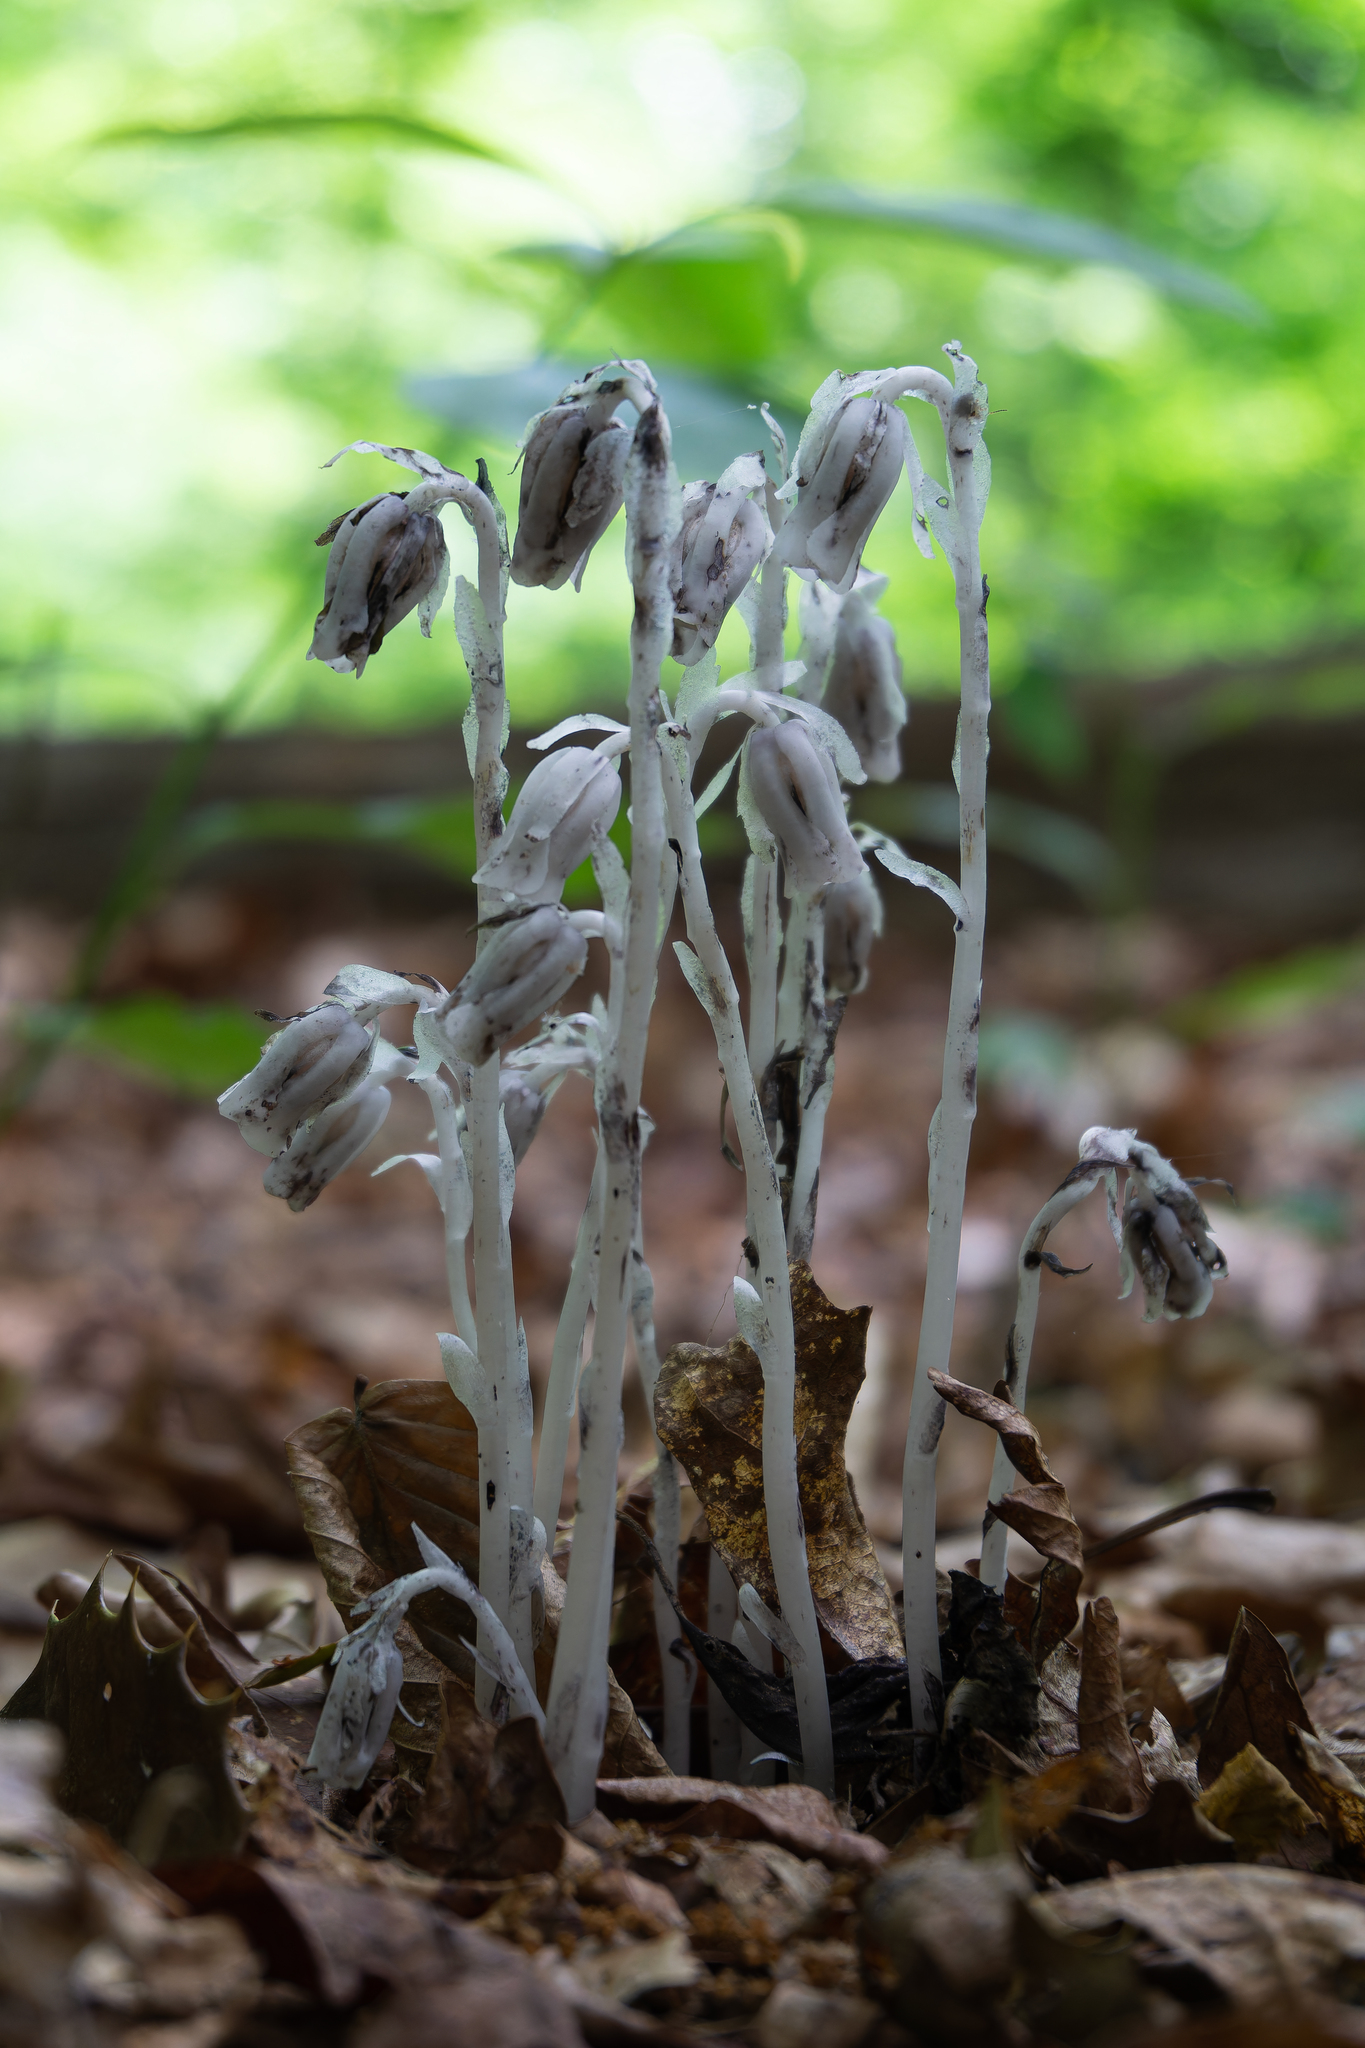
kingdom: Plantae
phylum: Tracheophyta
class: Magnoliopsida
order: Ericales
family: Ericaceae
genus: Monotropa
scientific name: Monotropa uniflora
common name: Convulsion root
